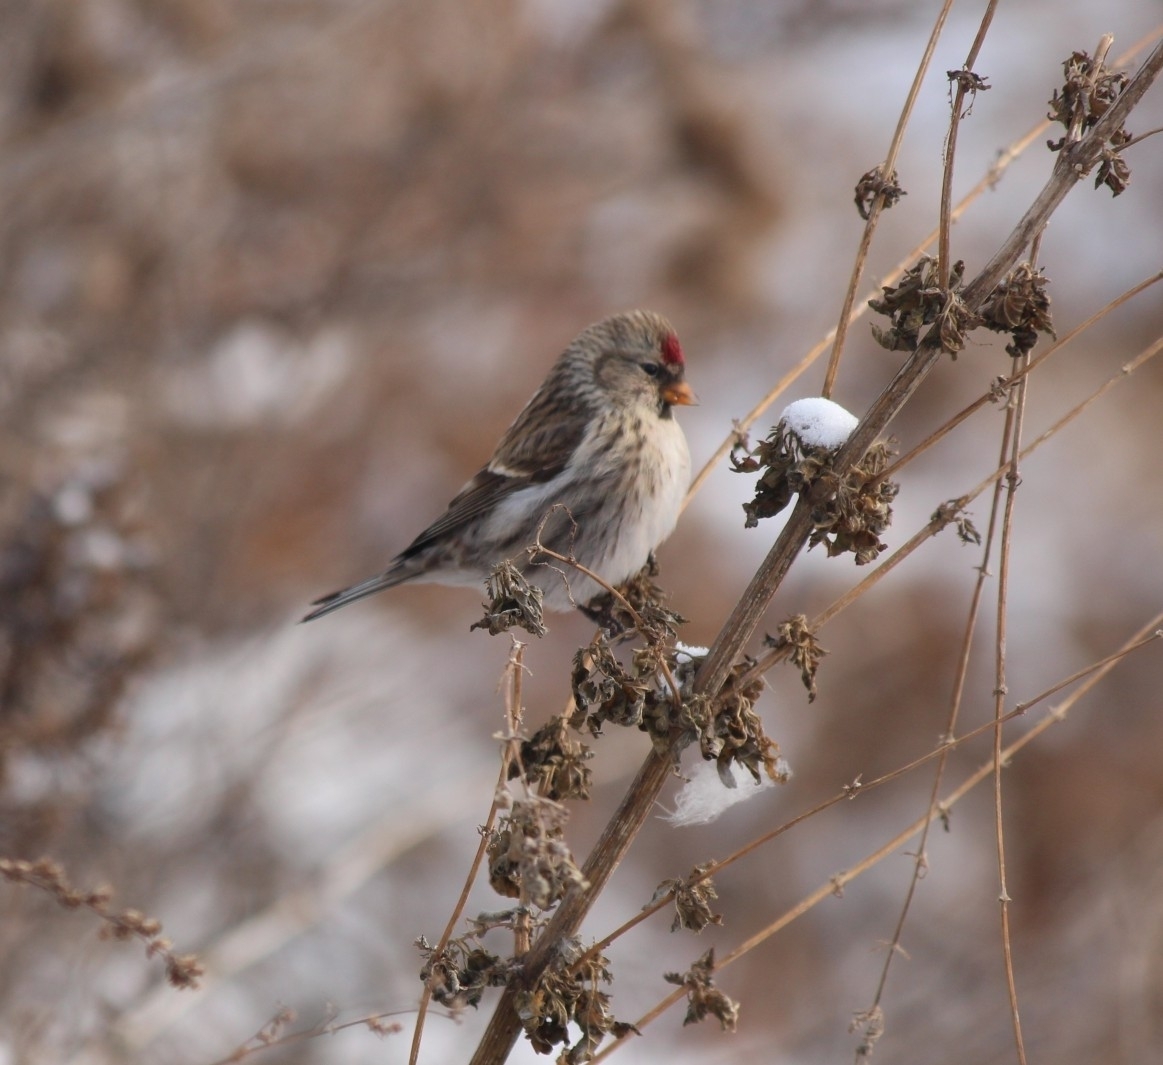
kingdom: Animalia
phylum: Chordata
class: Aves
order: Passeriformes
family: Fringillidae
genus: Acanthis
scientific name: Acanthis flammea
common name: Common redpoll
